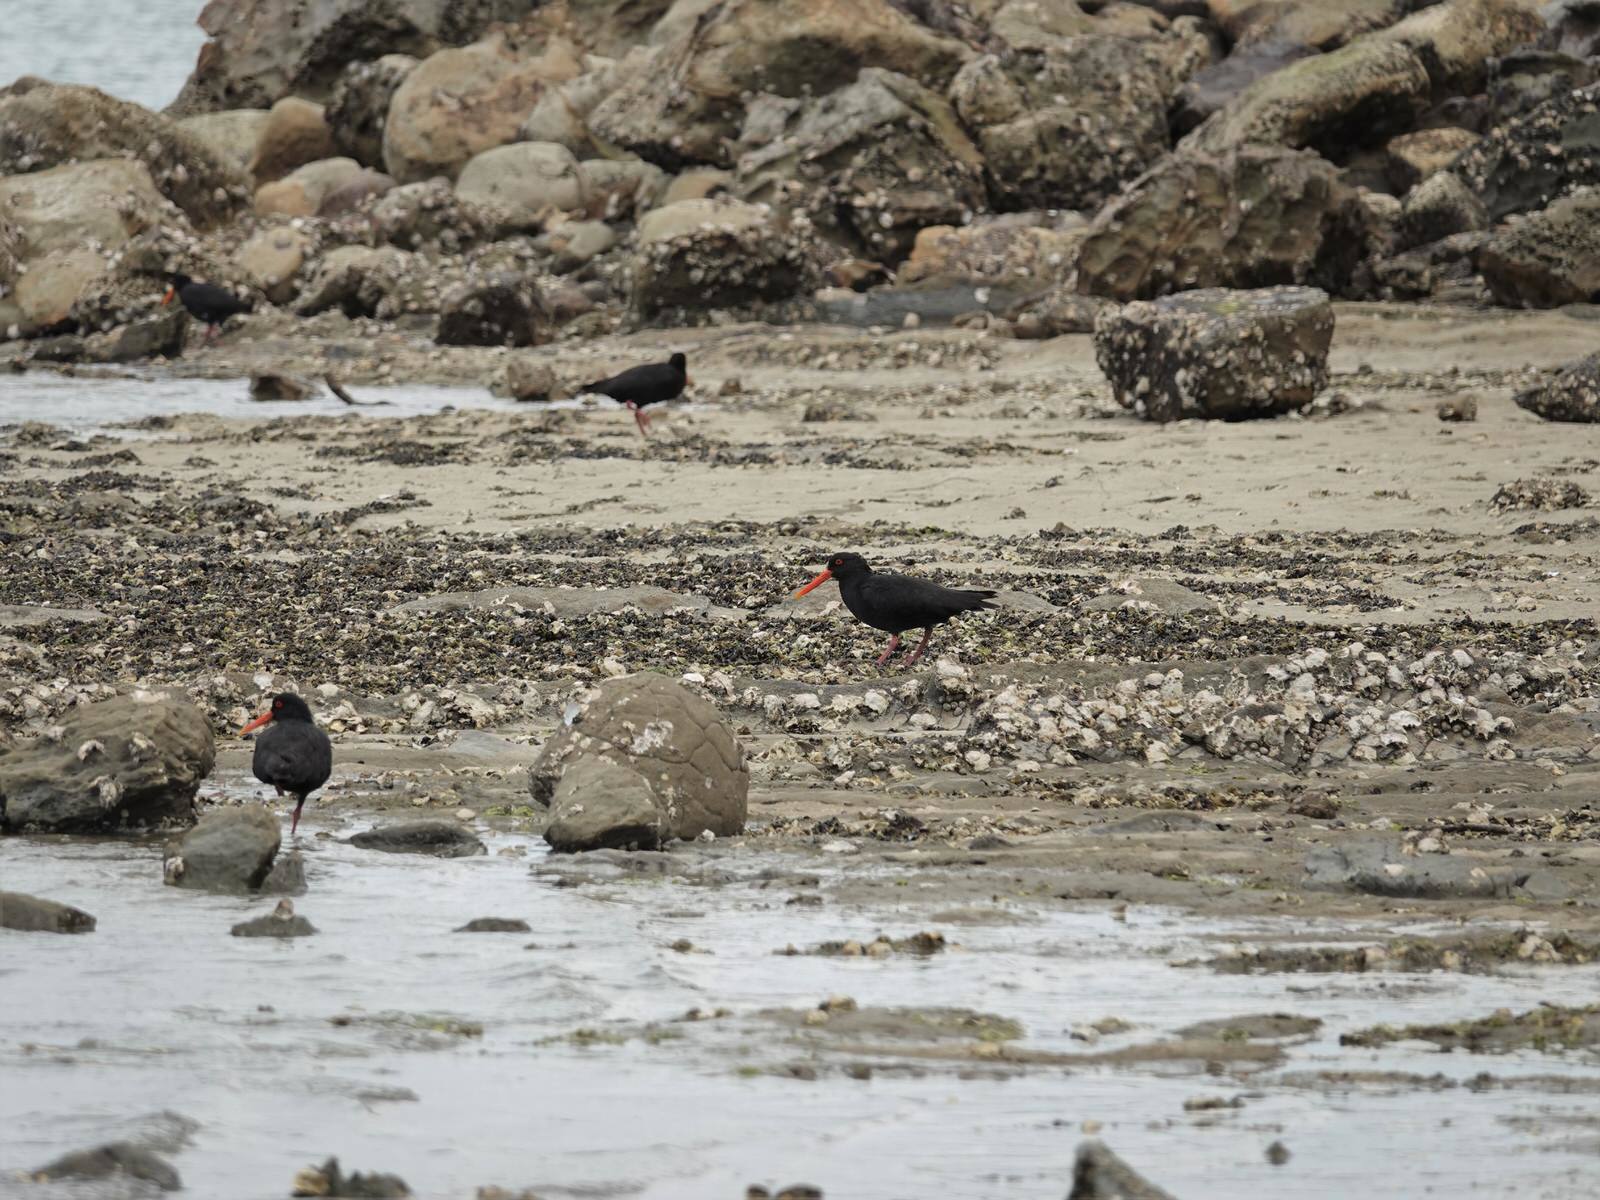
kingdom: Animalia
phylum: Chordata
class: Aves
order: Charadriiformes
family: Haematopodidae
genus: Haematopus
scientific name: Haematopus unicolor
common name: Variable oystercatcher
